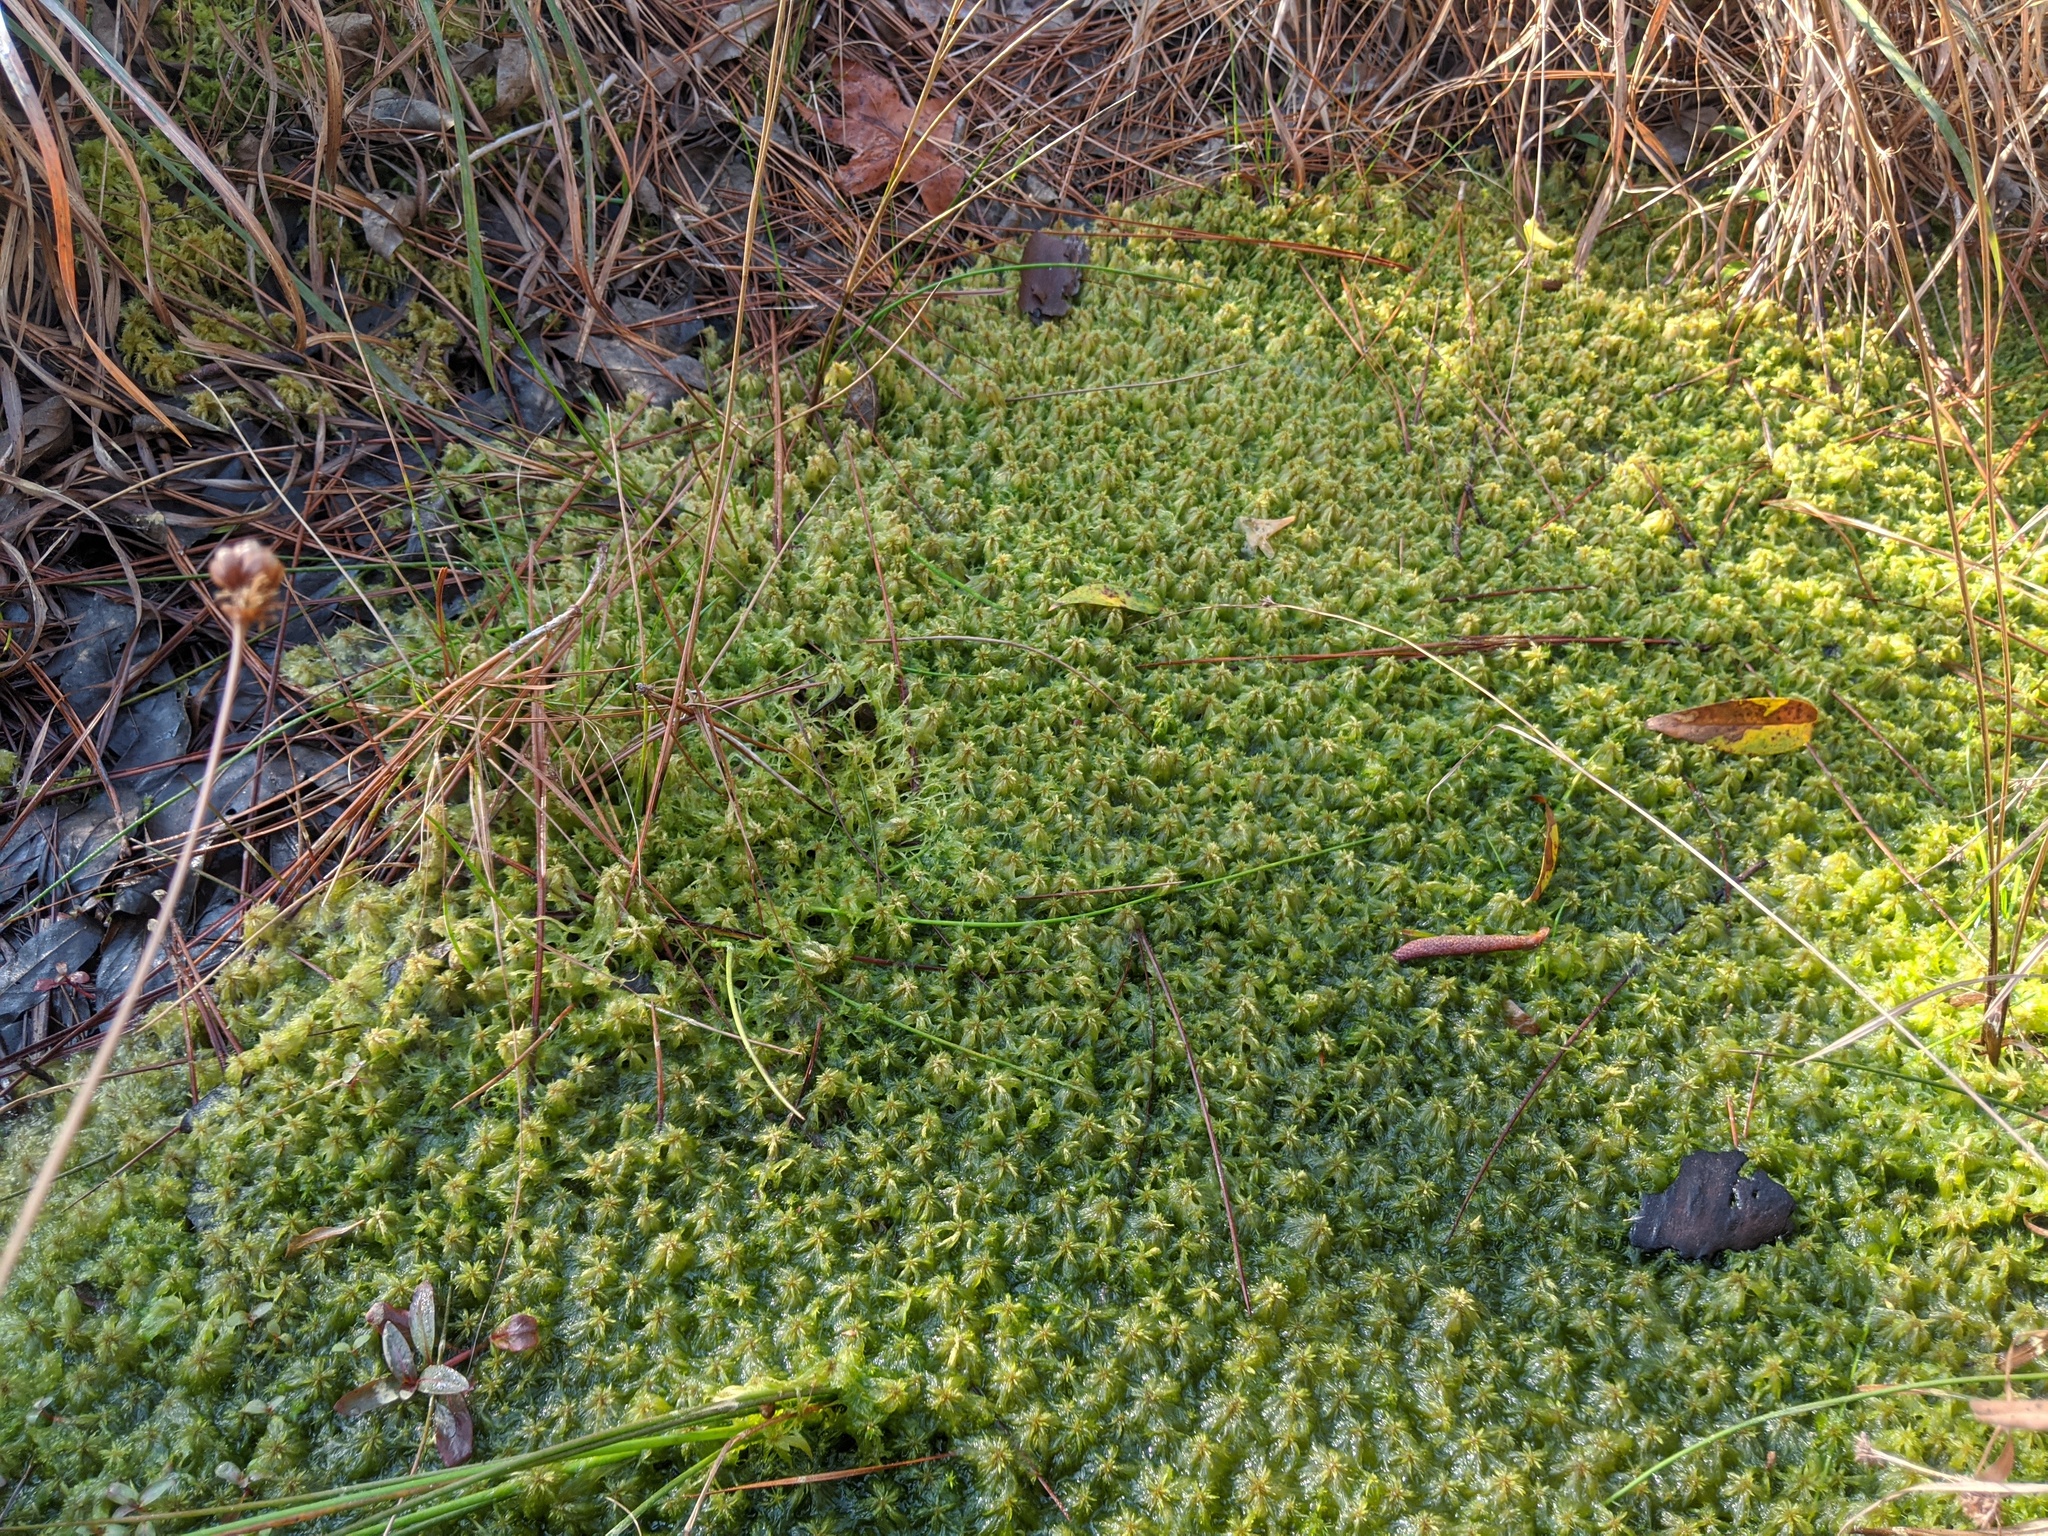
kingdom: Plantae
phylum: Bryophyta
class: Sphagnopsida
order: Sphagnales
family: Sphagnaceae
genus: Sphagnum
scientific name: Sphagnum cuspidatum
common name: Feathery peat moss
